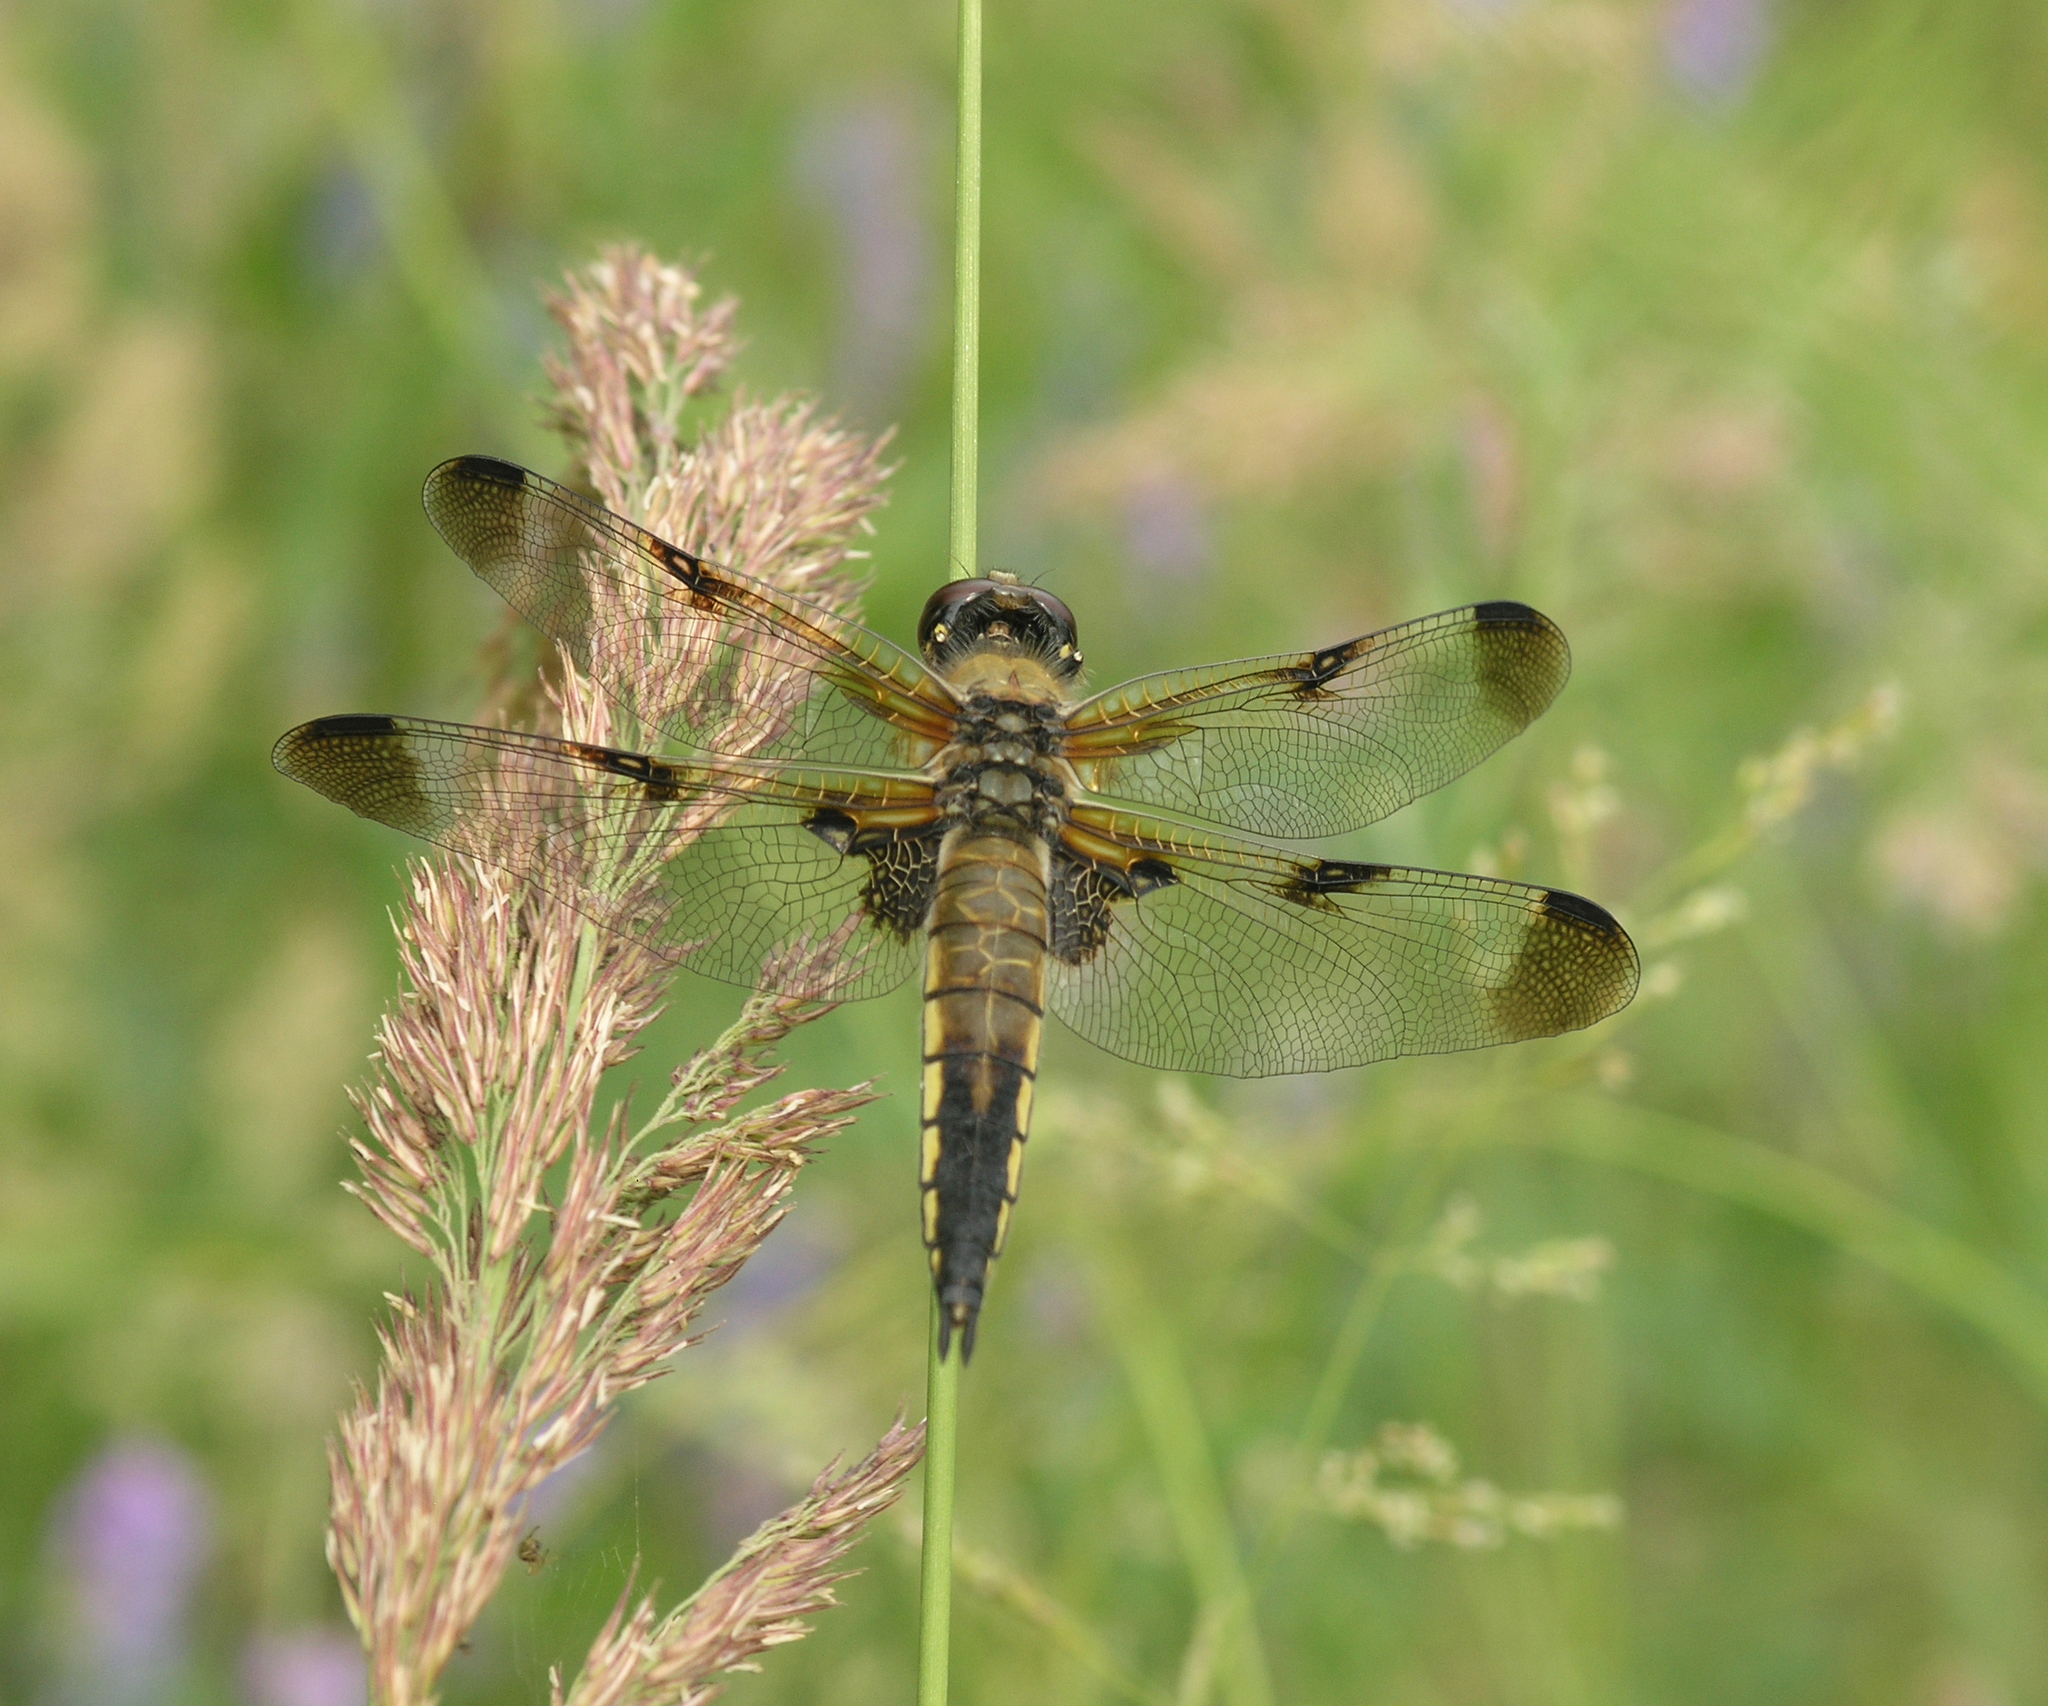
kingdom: Animalia
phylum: Arthropoda
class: Insecta
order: Odonata
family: Libellulidae
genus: Libellula
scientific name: Libellula quadrimaculata
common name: Four-spotted chaser
